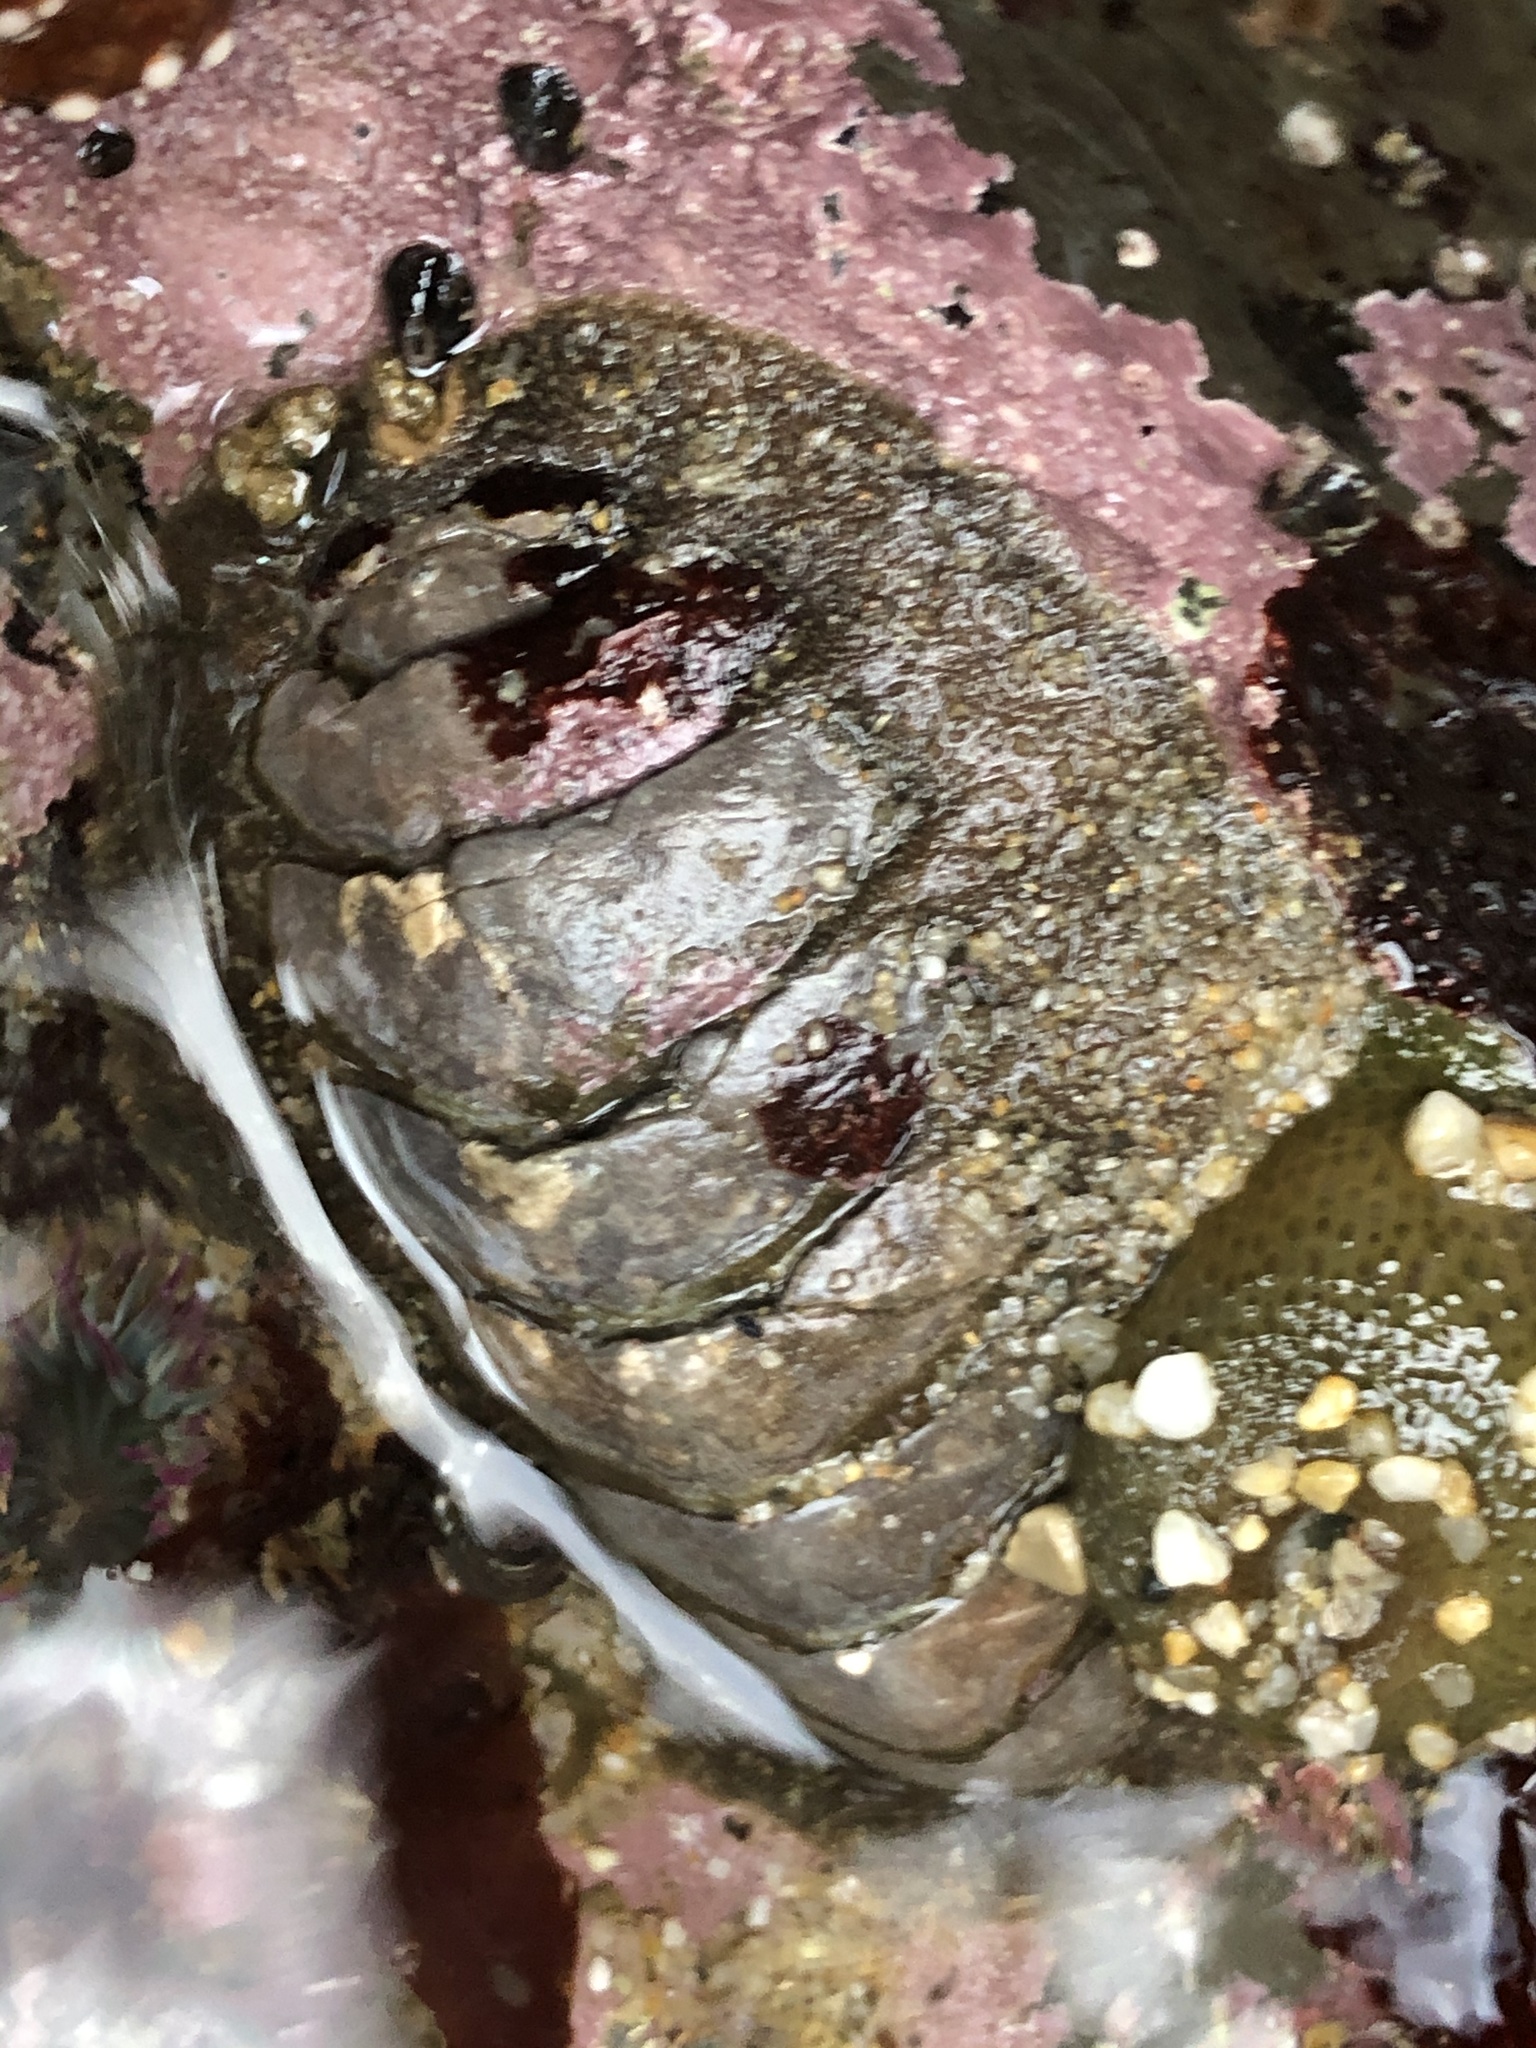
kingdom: Animalia
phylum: Mollusca
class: Polyplacophora
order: Chitonida
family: Mopaliidae
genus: Mopalia
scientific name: Mopalia hindsii
